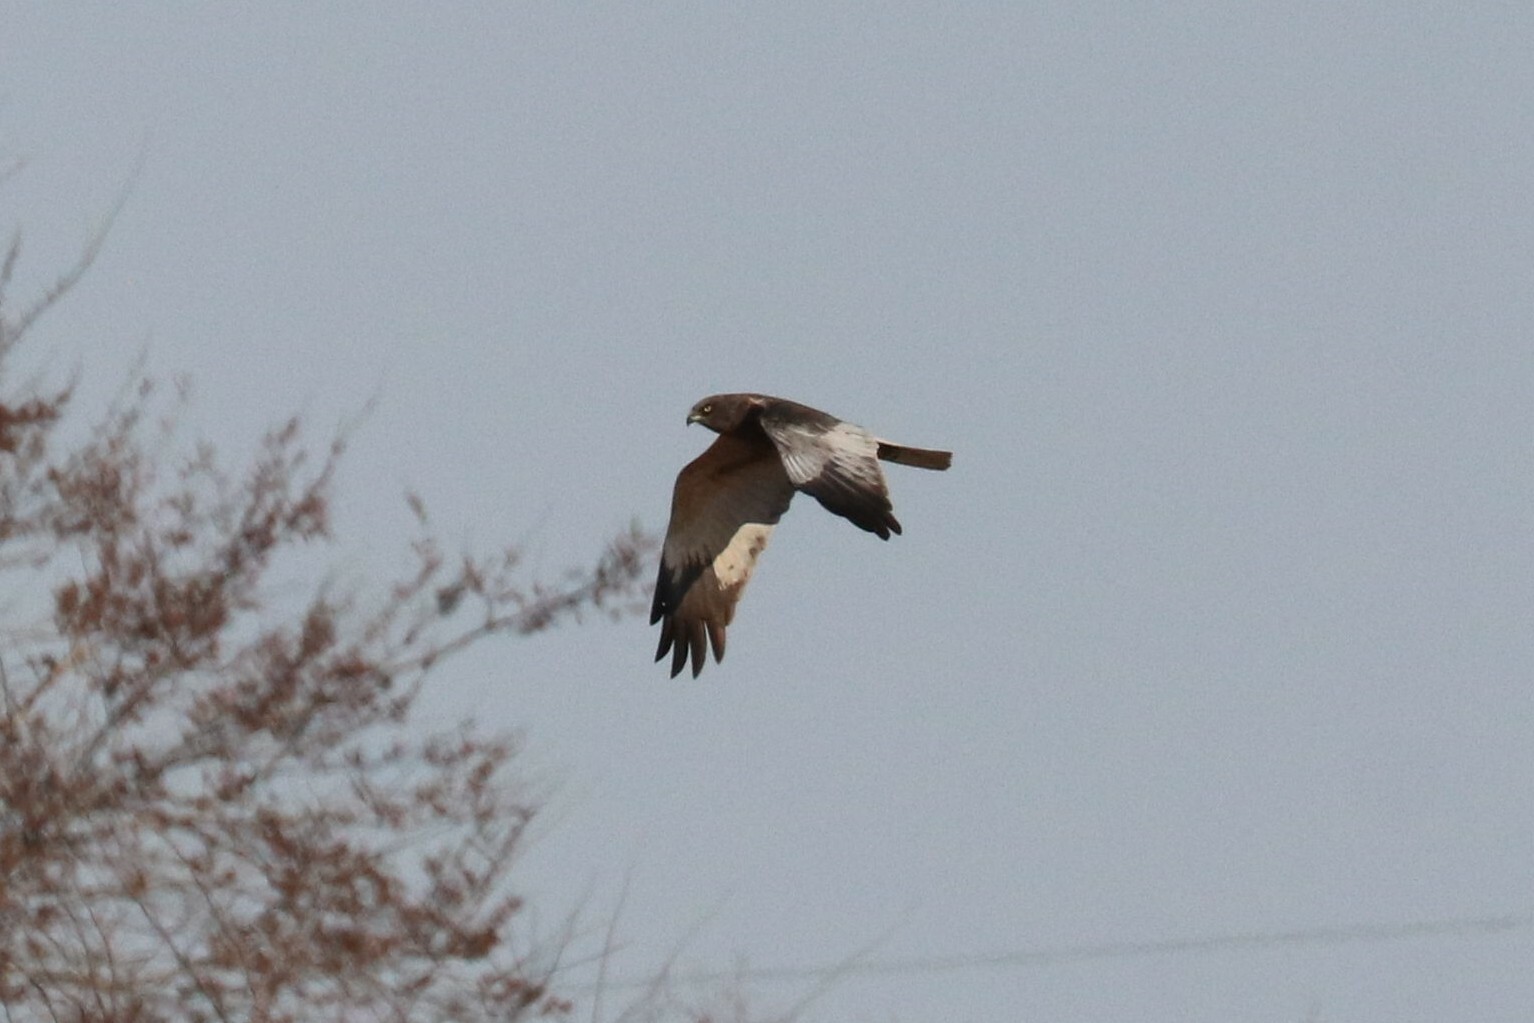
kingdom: Animalia
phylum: Chordata
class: Aves
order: Accipitriformes
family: Accipitridae
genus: Circus
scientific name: Circus aeruginosus
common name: Western marsh harrier
